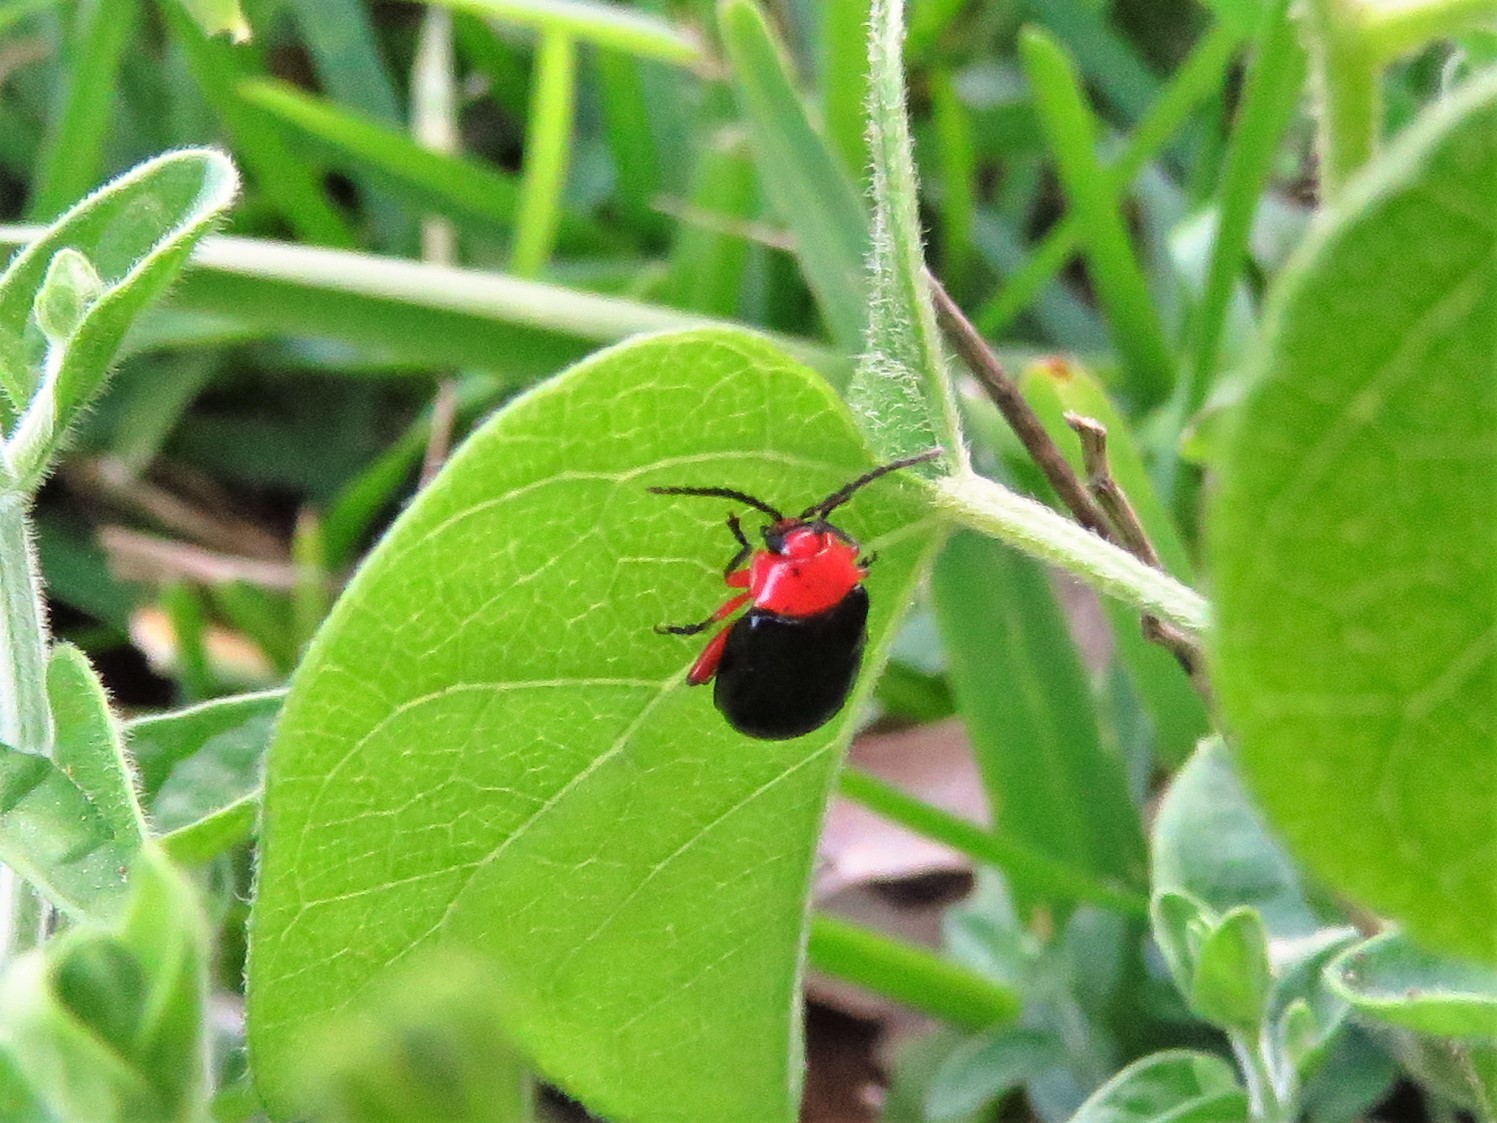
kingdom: Animalia
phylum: Arthropoda
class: Insecta
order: Coleoptera
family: Chrysomelidae
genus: Asphaera
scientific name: Asphaera lustrans
